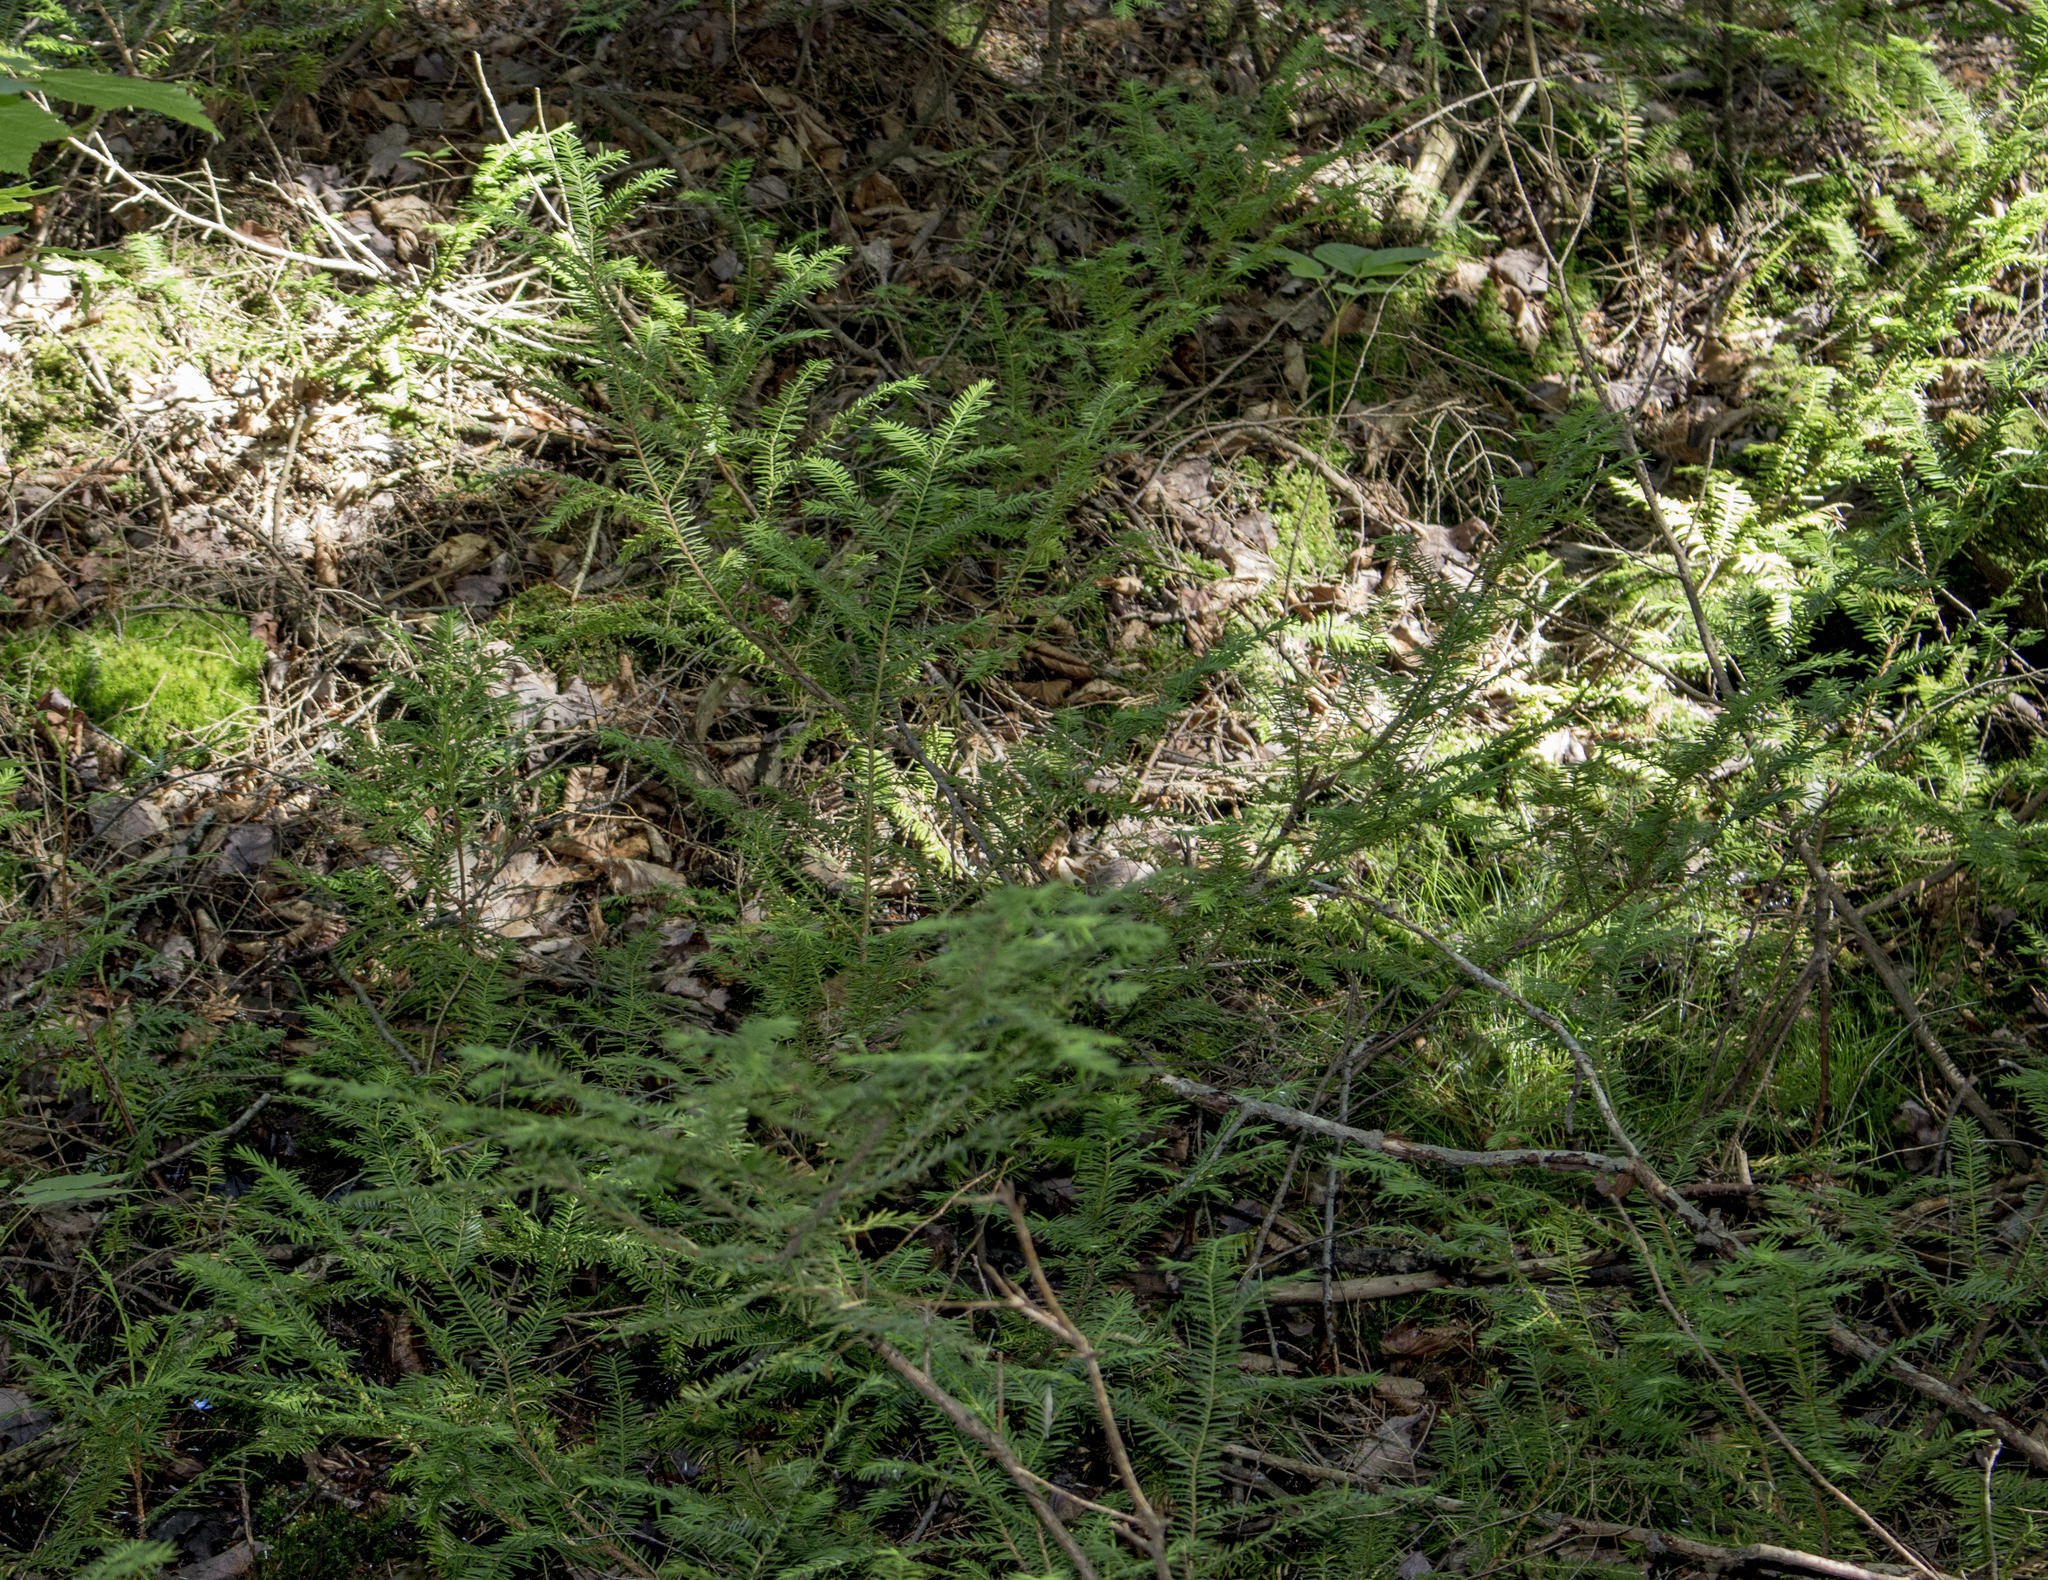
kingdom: Plantae
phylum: Tracheophyta
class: Pinopsida
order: Pinales
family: Taxaceae
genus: Taxus
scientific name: Taxus canadensis
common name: American yew
